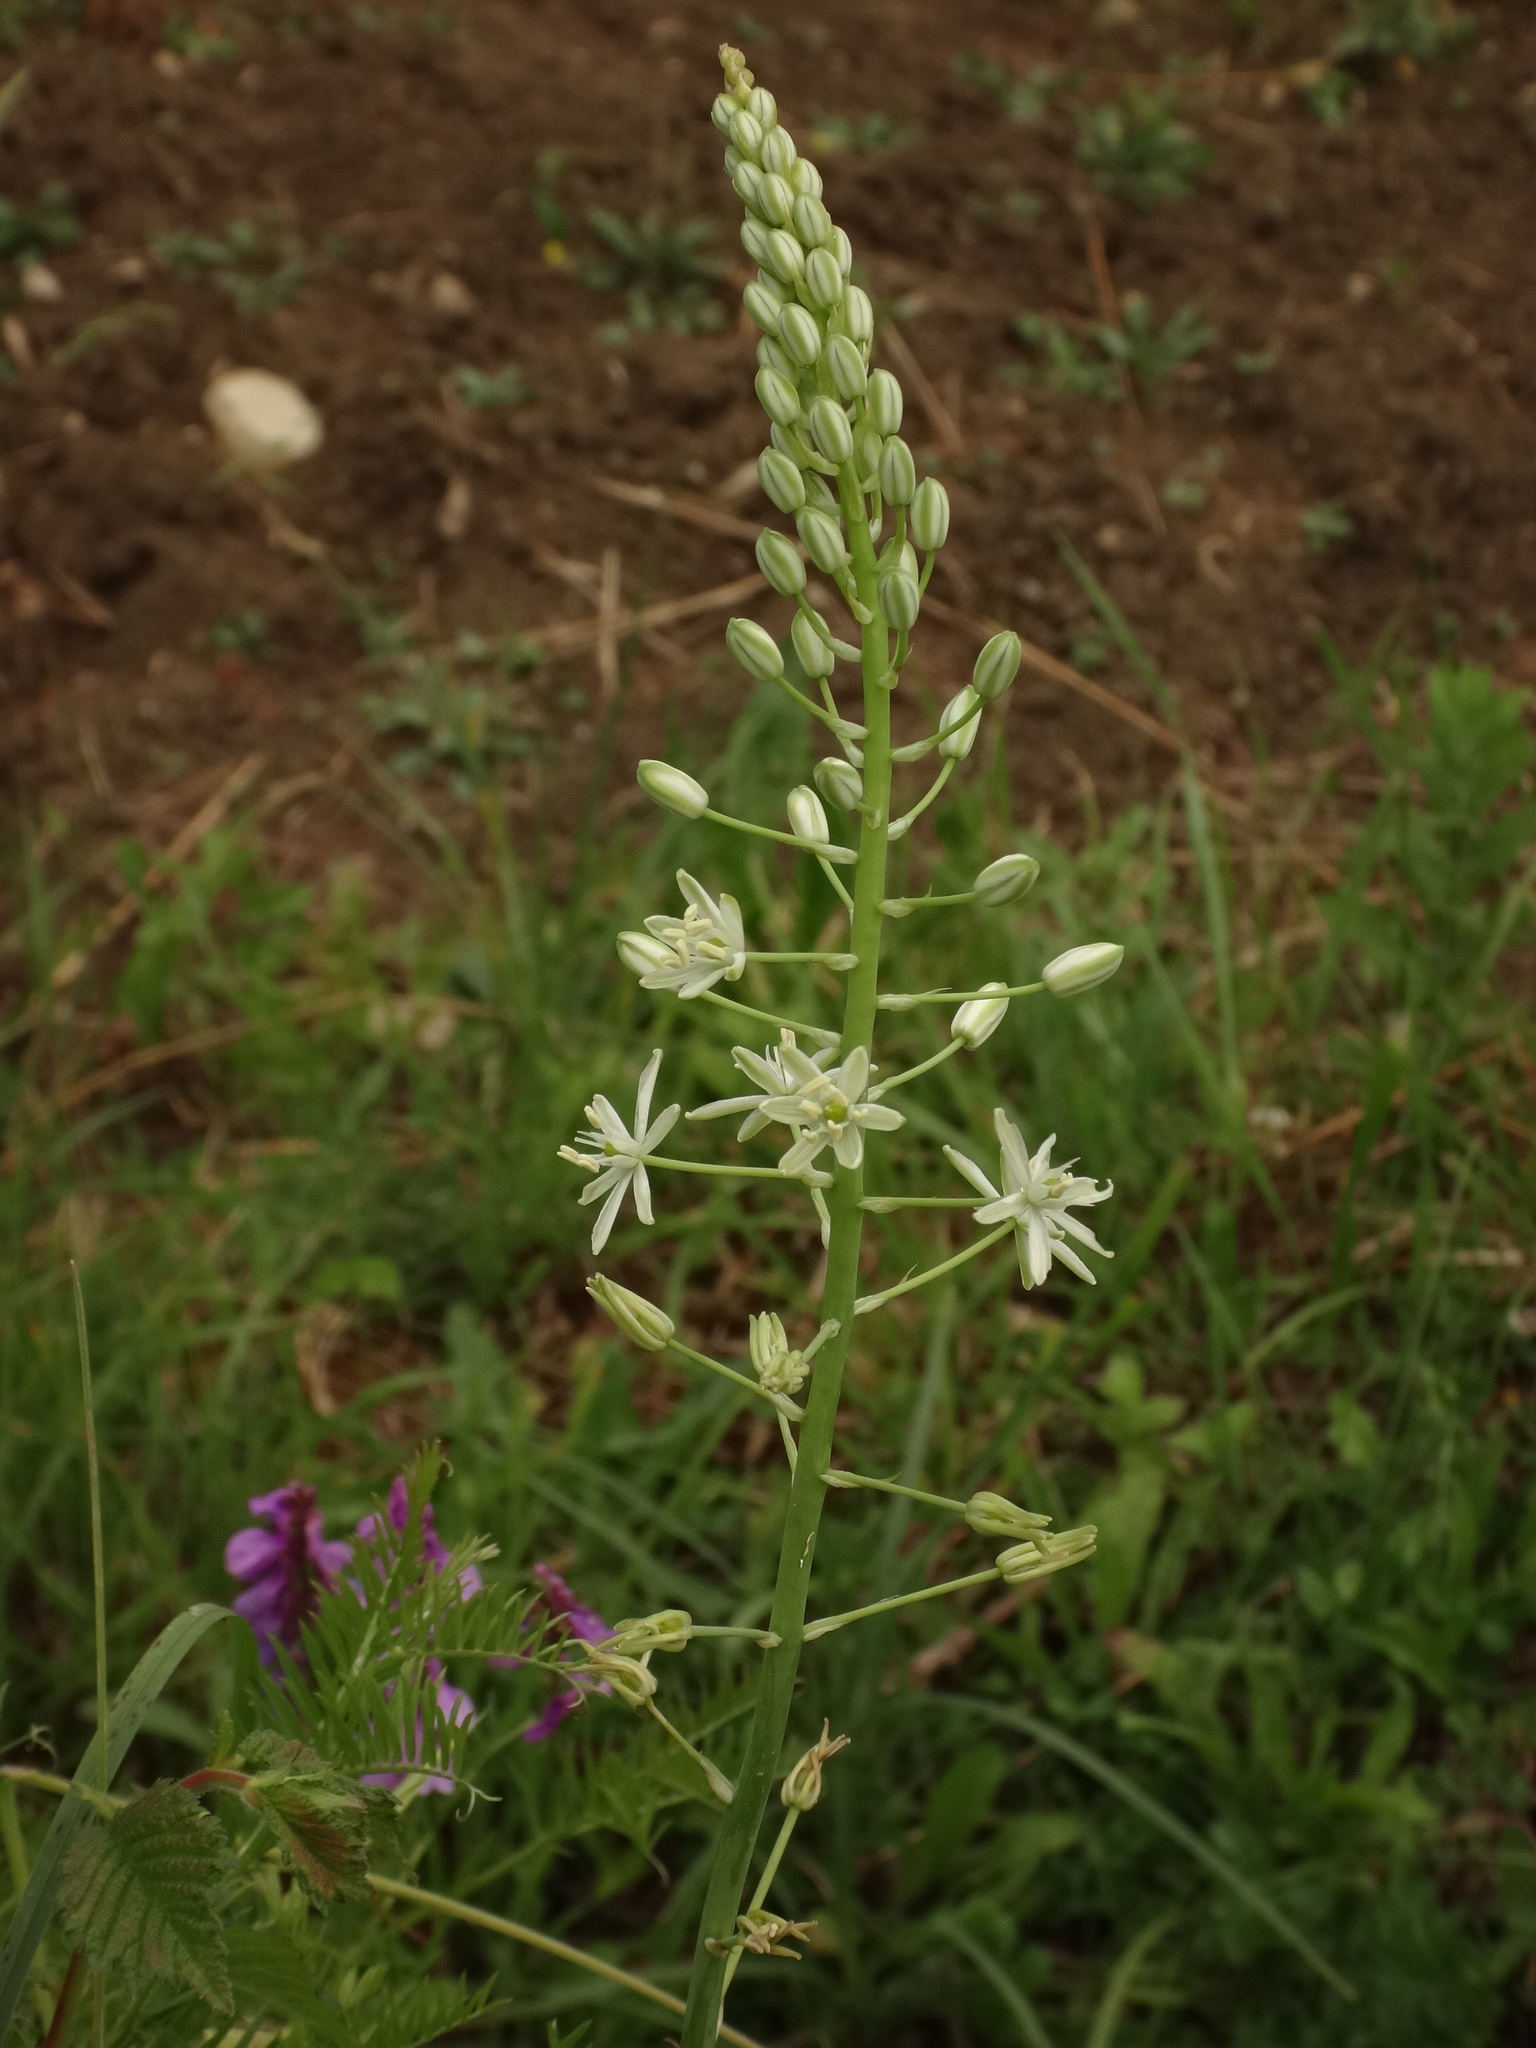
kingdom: Plantae
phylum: Tracheophyta
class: Liliopsida
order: Asparagales
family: Asparagaceae
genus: Ornithogalum
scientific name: Ornithogalum pyrenaicum
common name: Spiked star-of-bethlehem
